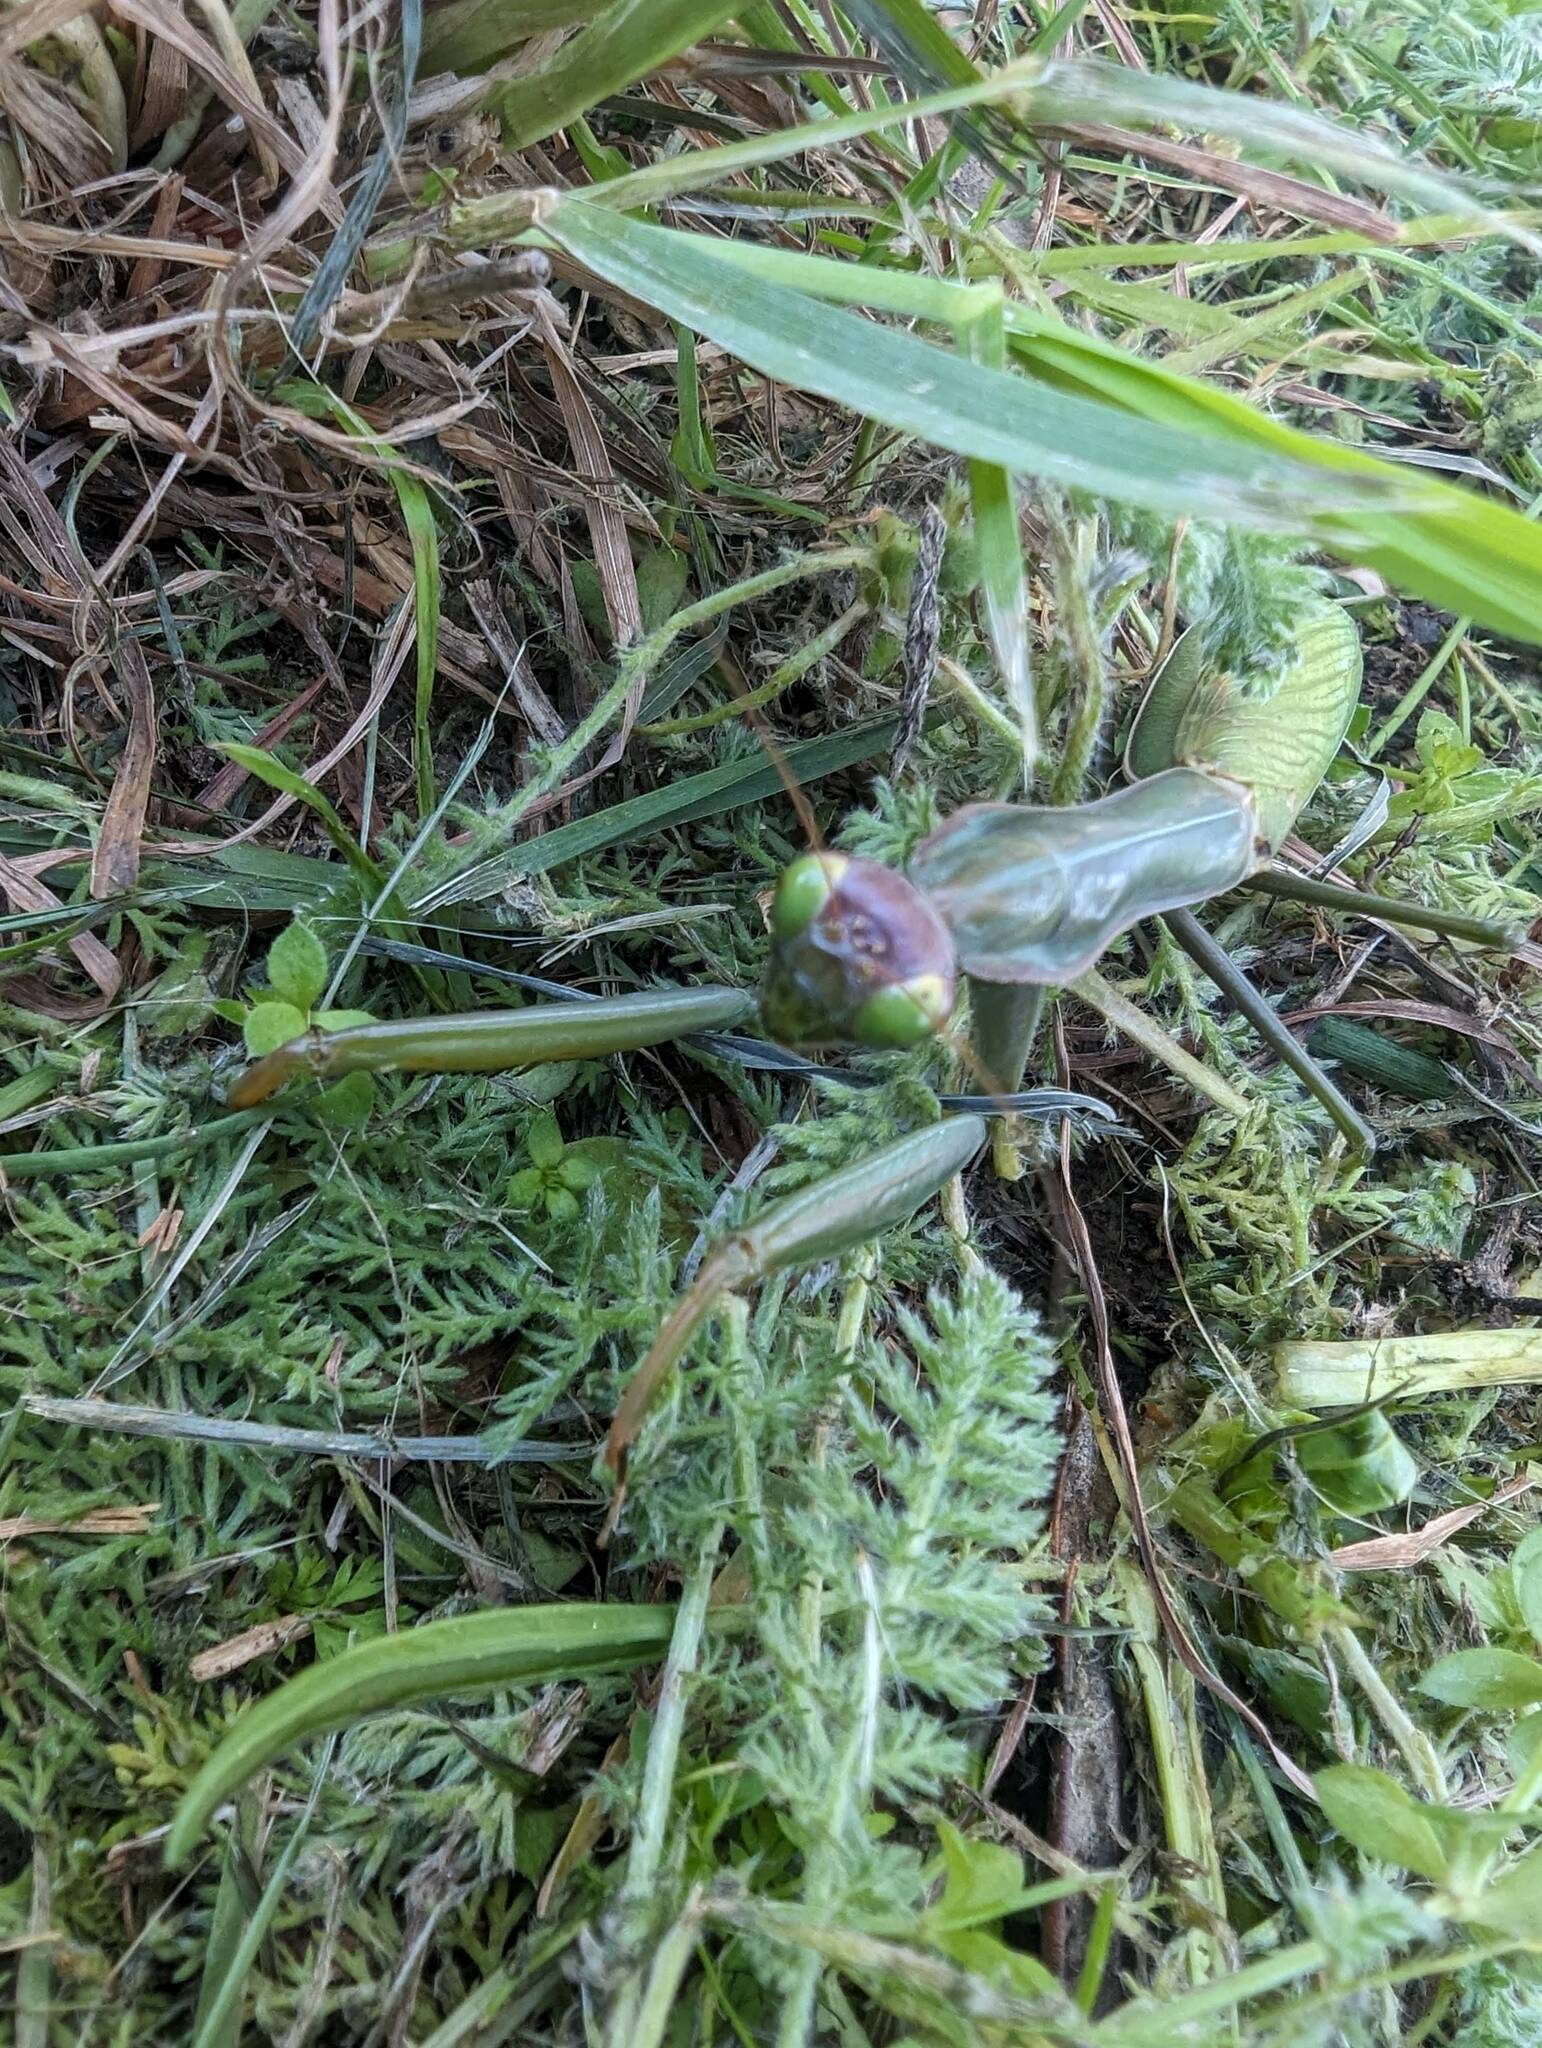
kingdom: Animalia
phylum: Arthropoda
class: Insecta
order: Mantodea
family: Mantidae
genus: Mantis
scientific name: Mantis religiosa
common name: Praying mantis
